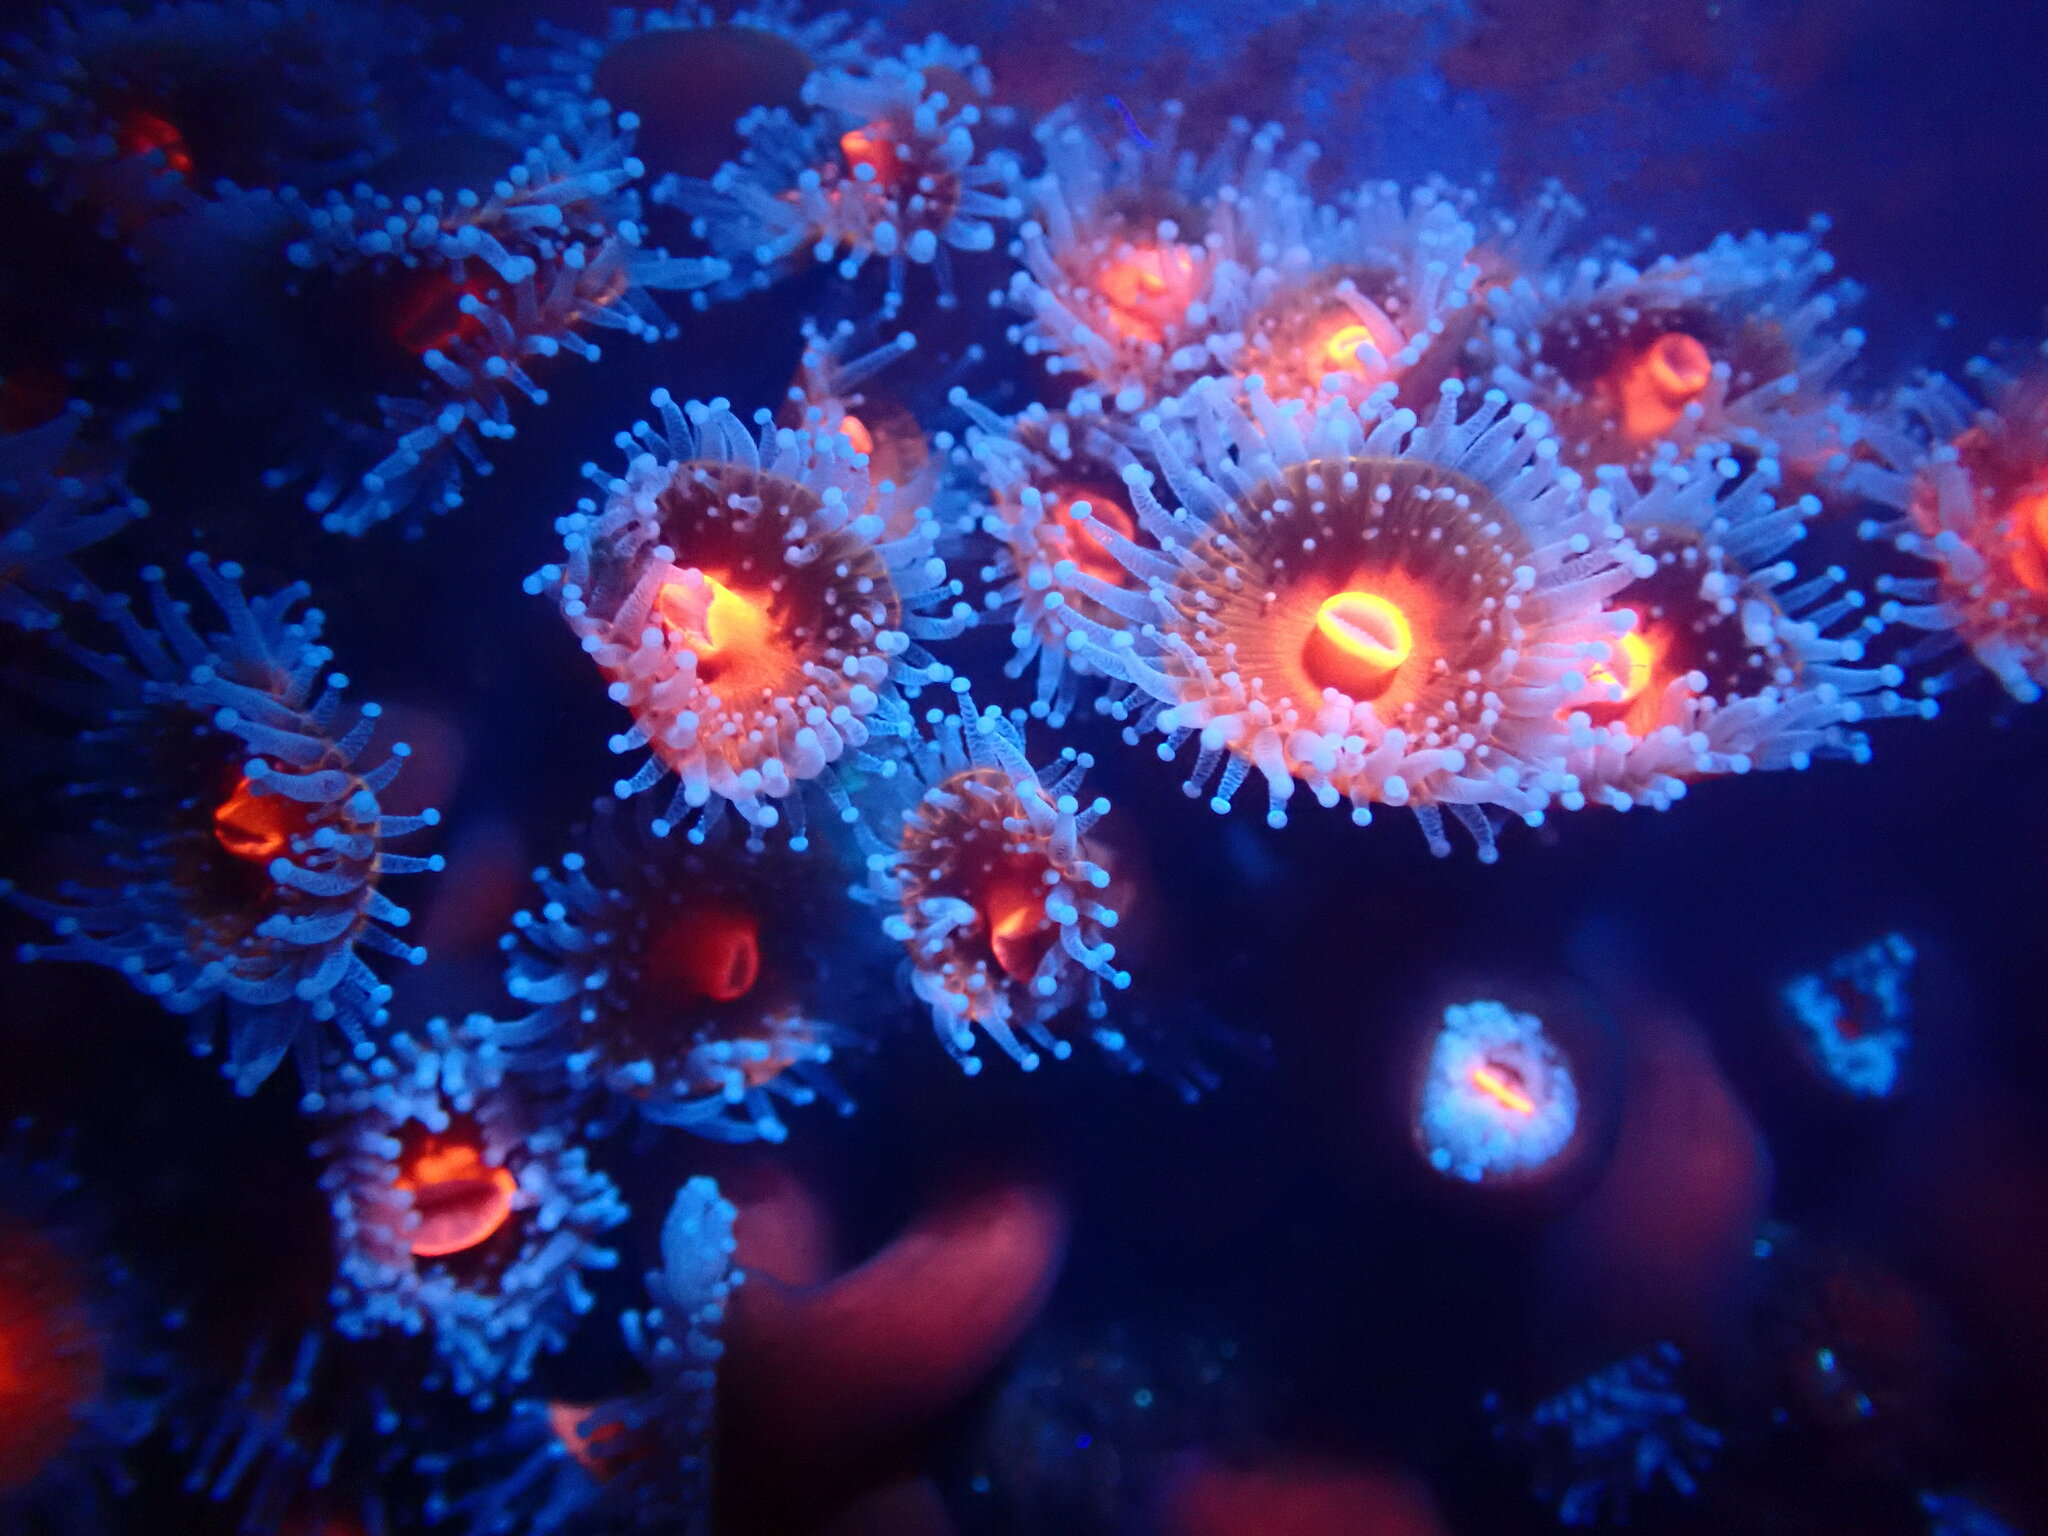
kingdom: Animalia
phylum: Cnidaria
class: Anthozoa
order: Corallimorpharia
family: Corallimorphidae
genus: Corynactis
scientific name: Corynactis californica
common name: Strawberry corallimorpharian
